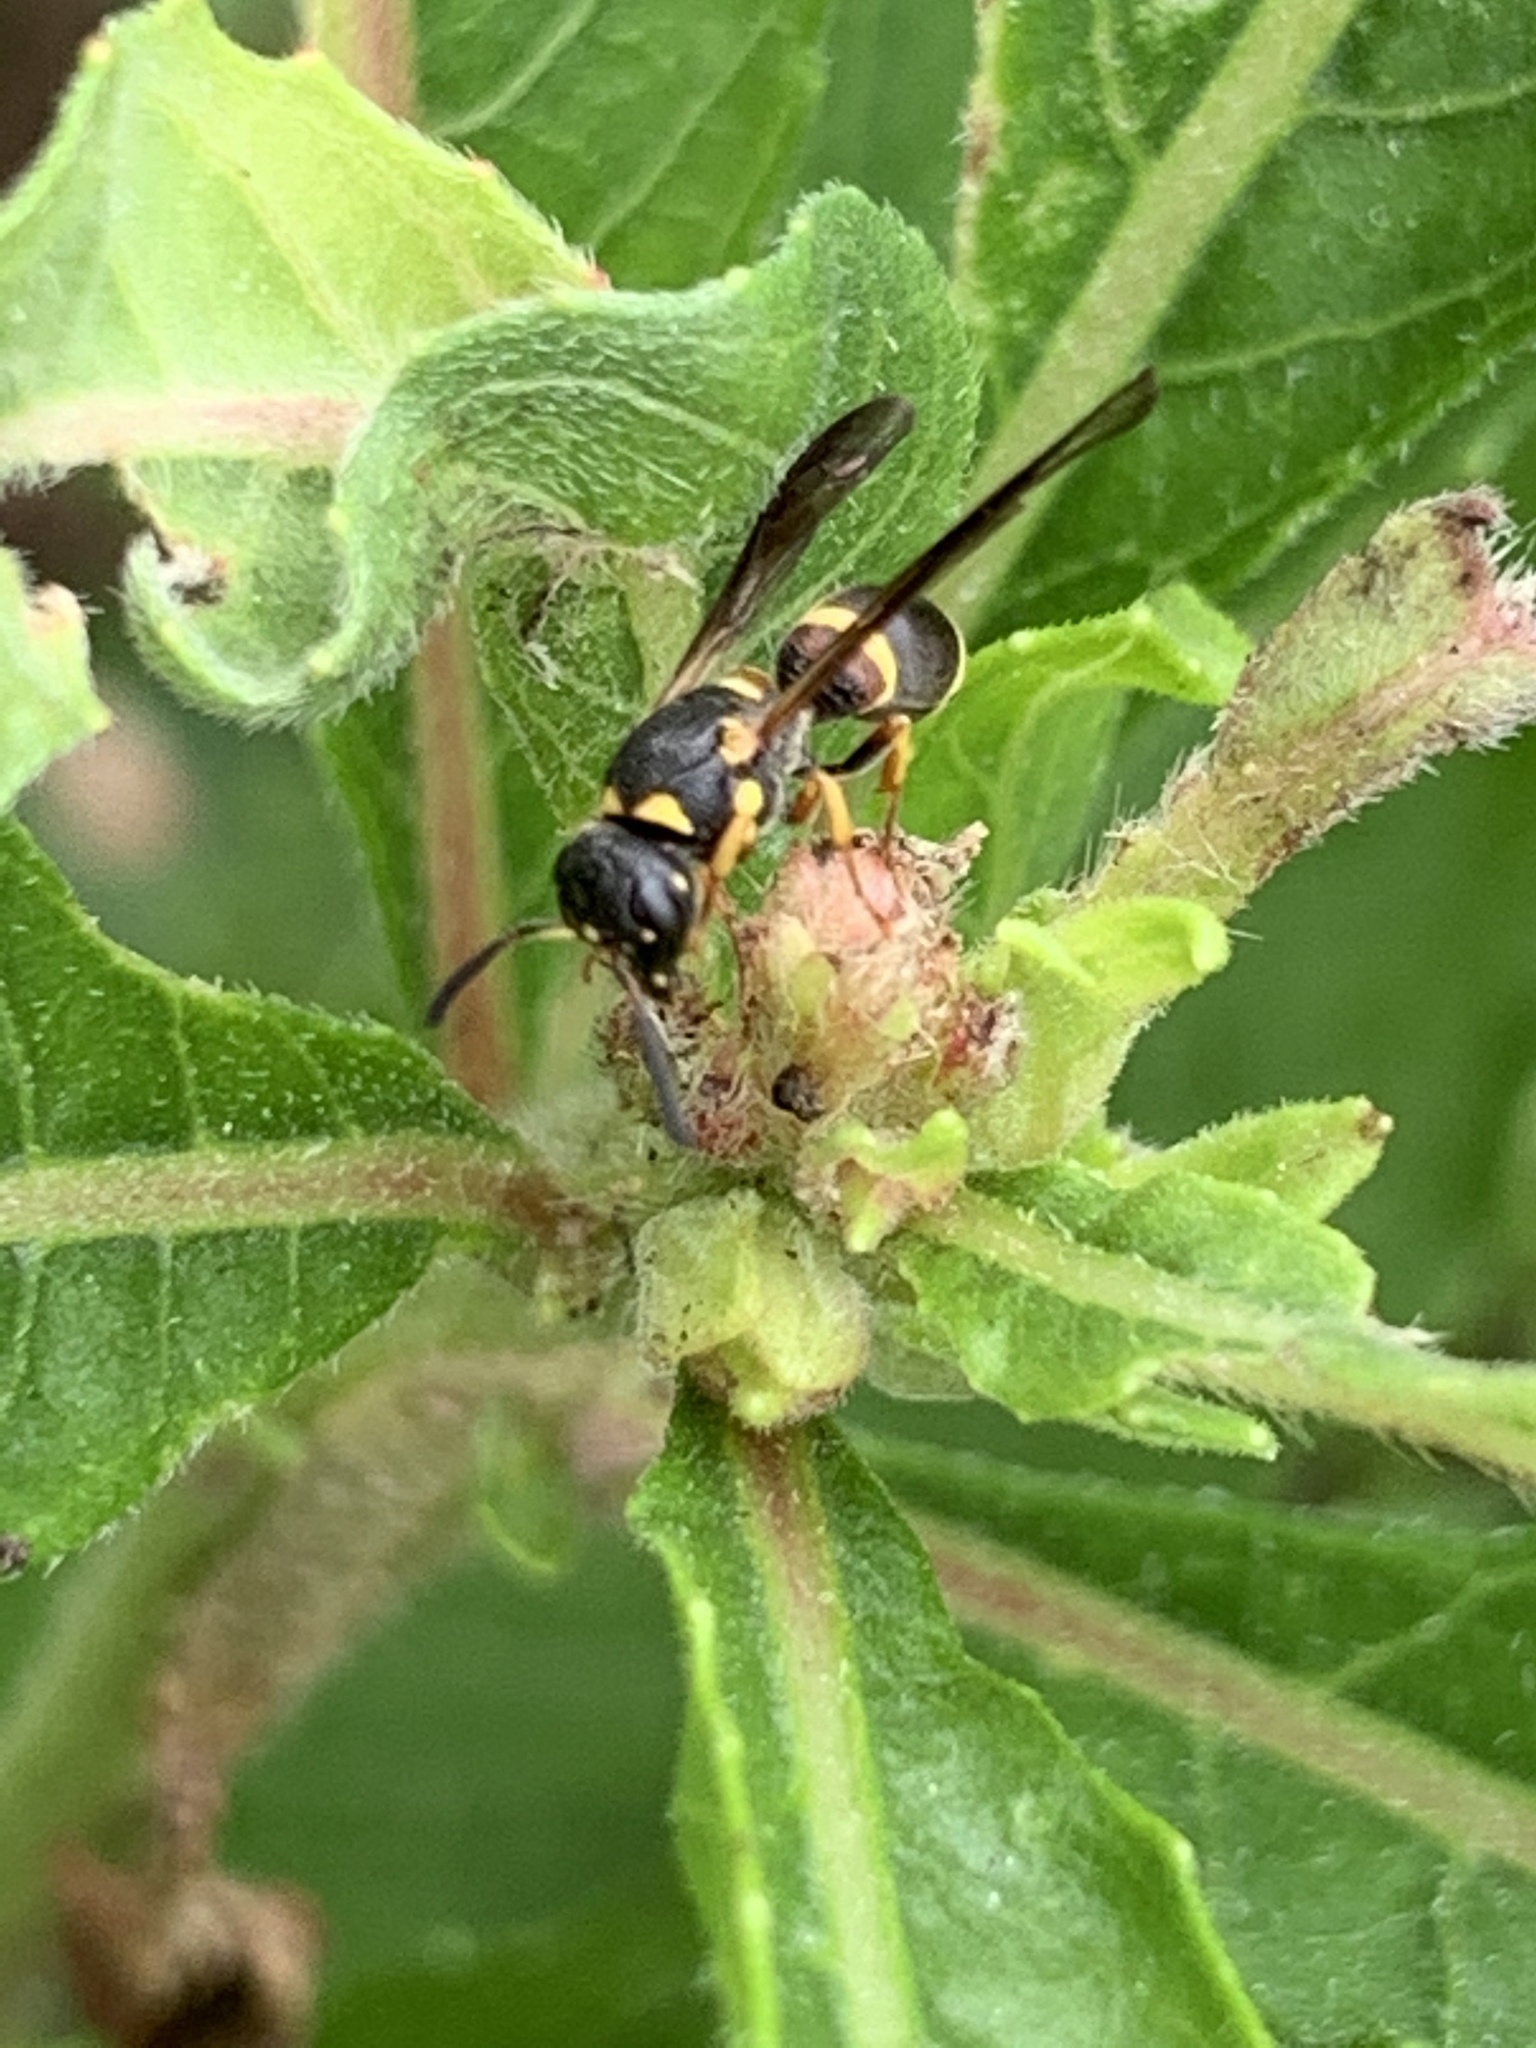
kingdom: Animalia
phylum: Arthropoda
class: Insecta
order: Hymenoptera
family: Eumenidae
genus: Parancistrocerus
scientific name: Parancistrocerus perennis
